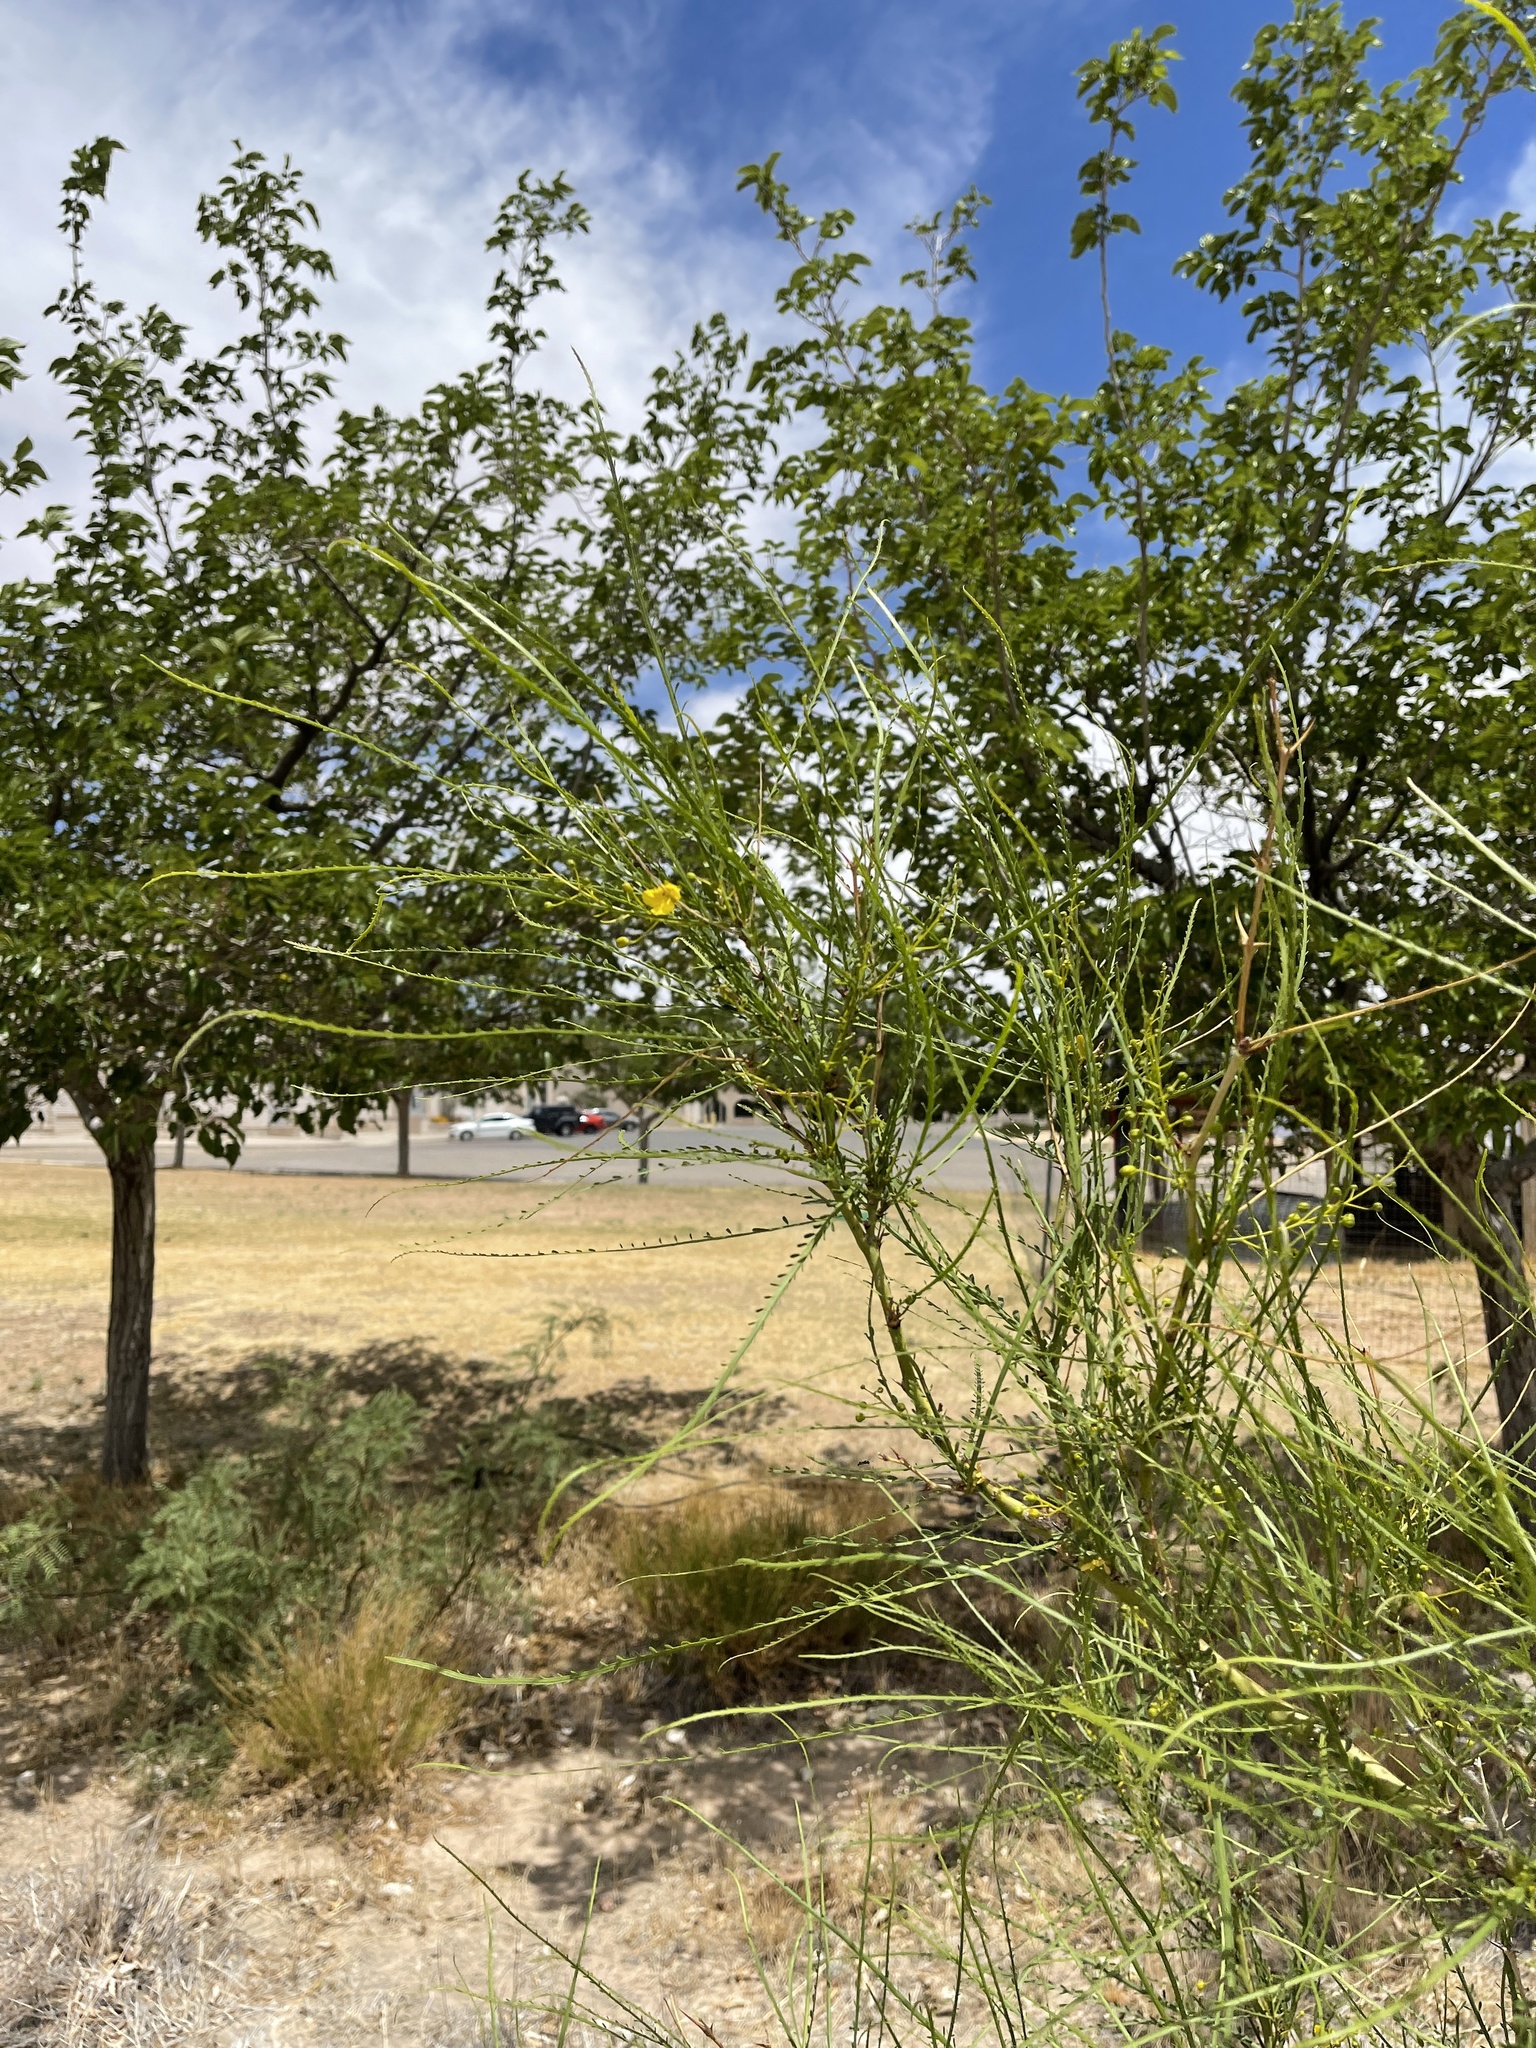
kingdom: Plantae
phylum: Tracheophyta
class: Magnoliopsida
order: Fabales
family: Fabaceae
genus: Parkinsonia
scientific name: Parkinsonia aculeata
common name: Jerusalem thorn
